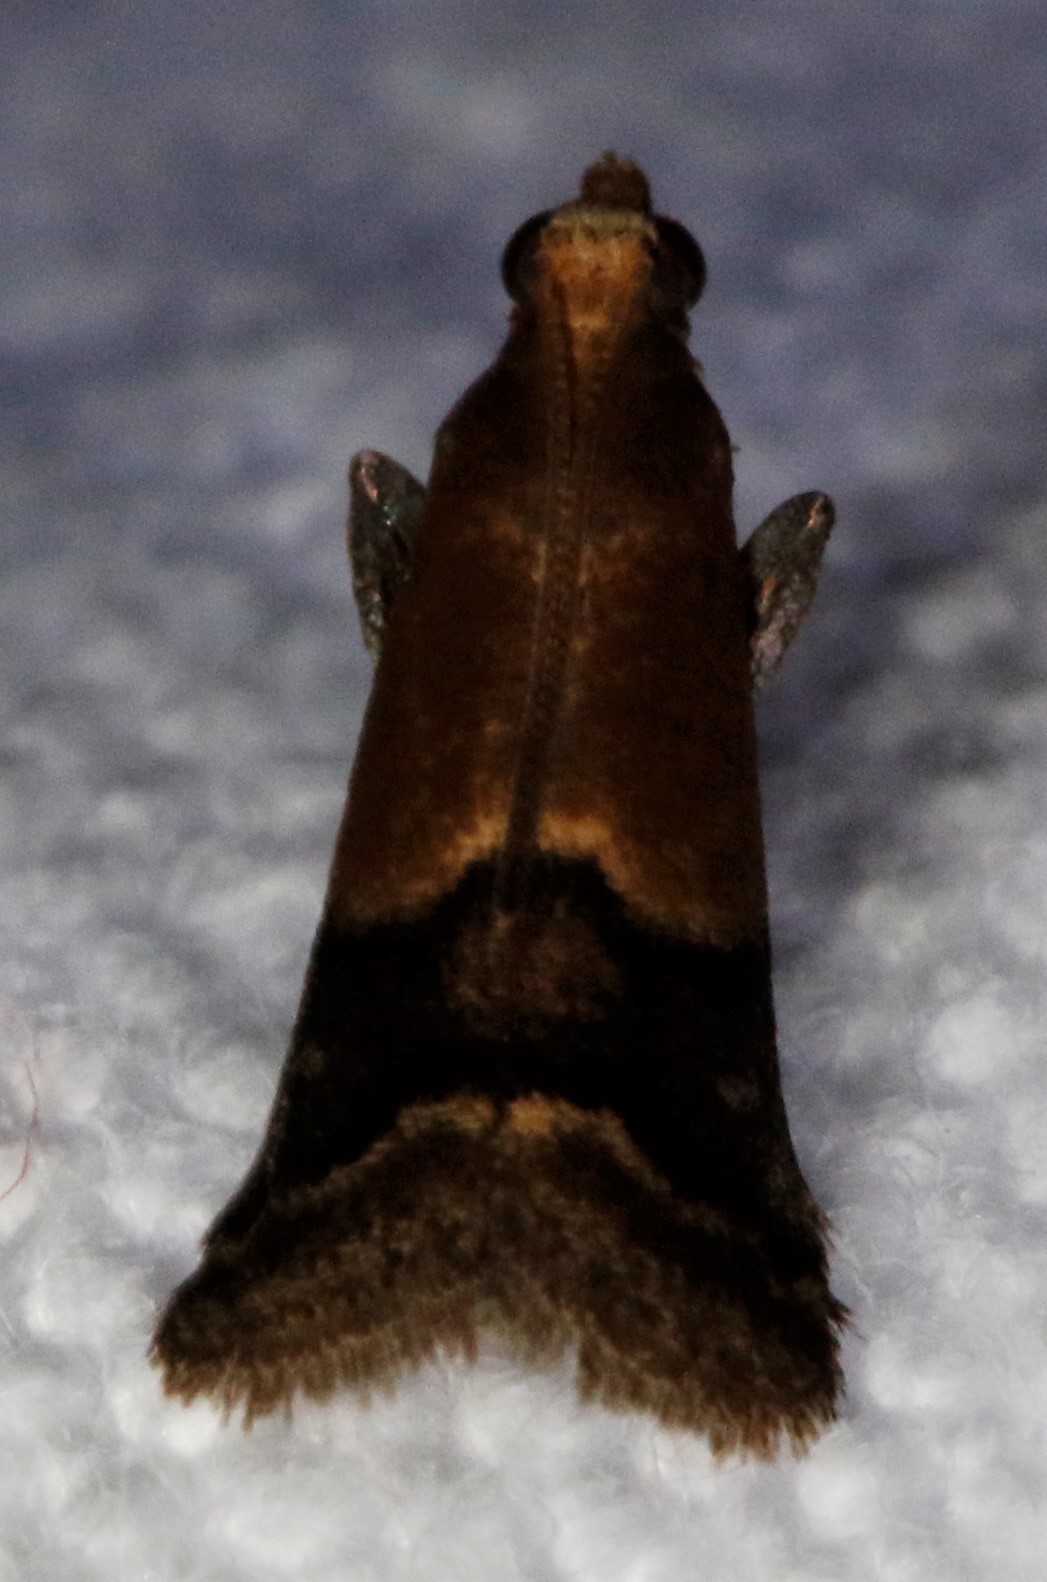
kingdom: Animalia
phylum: Arthropoda
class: Insecta
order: Lepidoptera
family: Pyralidae
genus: Eulogia
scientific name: Eulogia ochrifrontella
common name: Broad-banded eulogia moth
